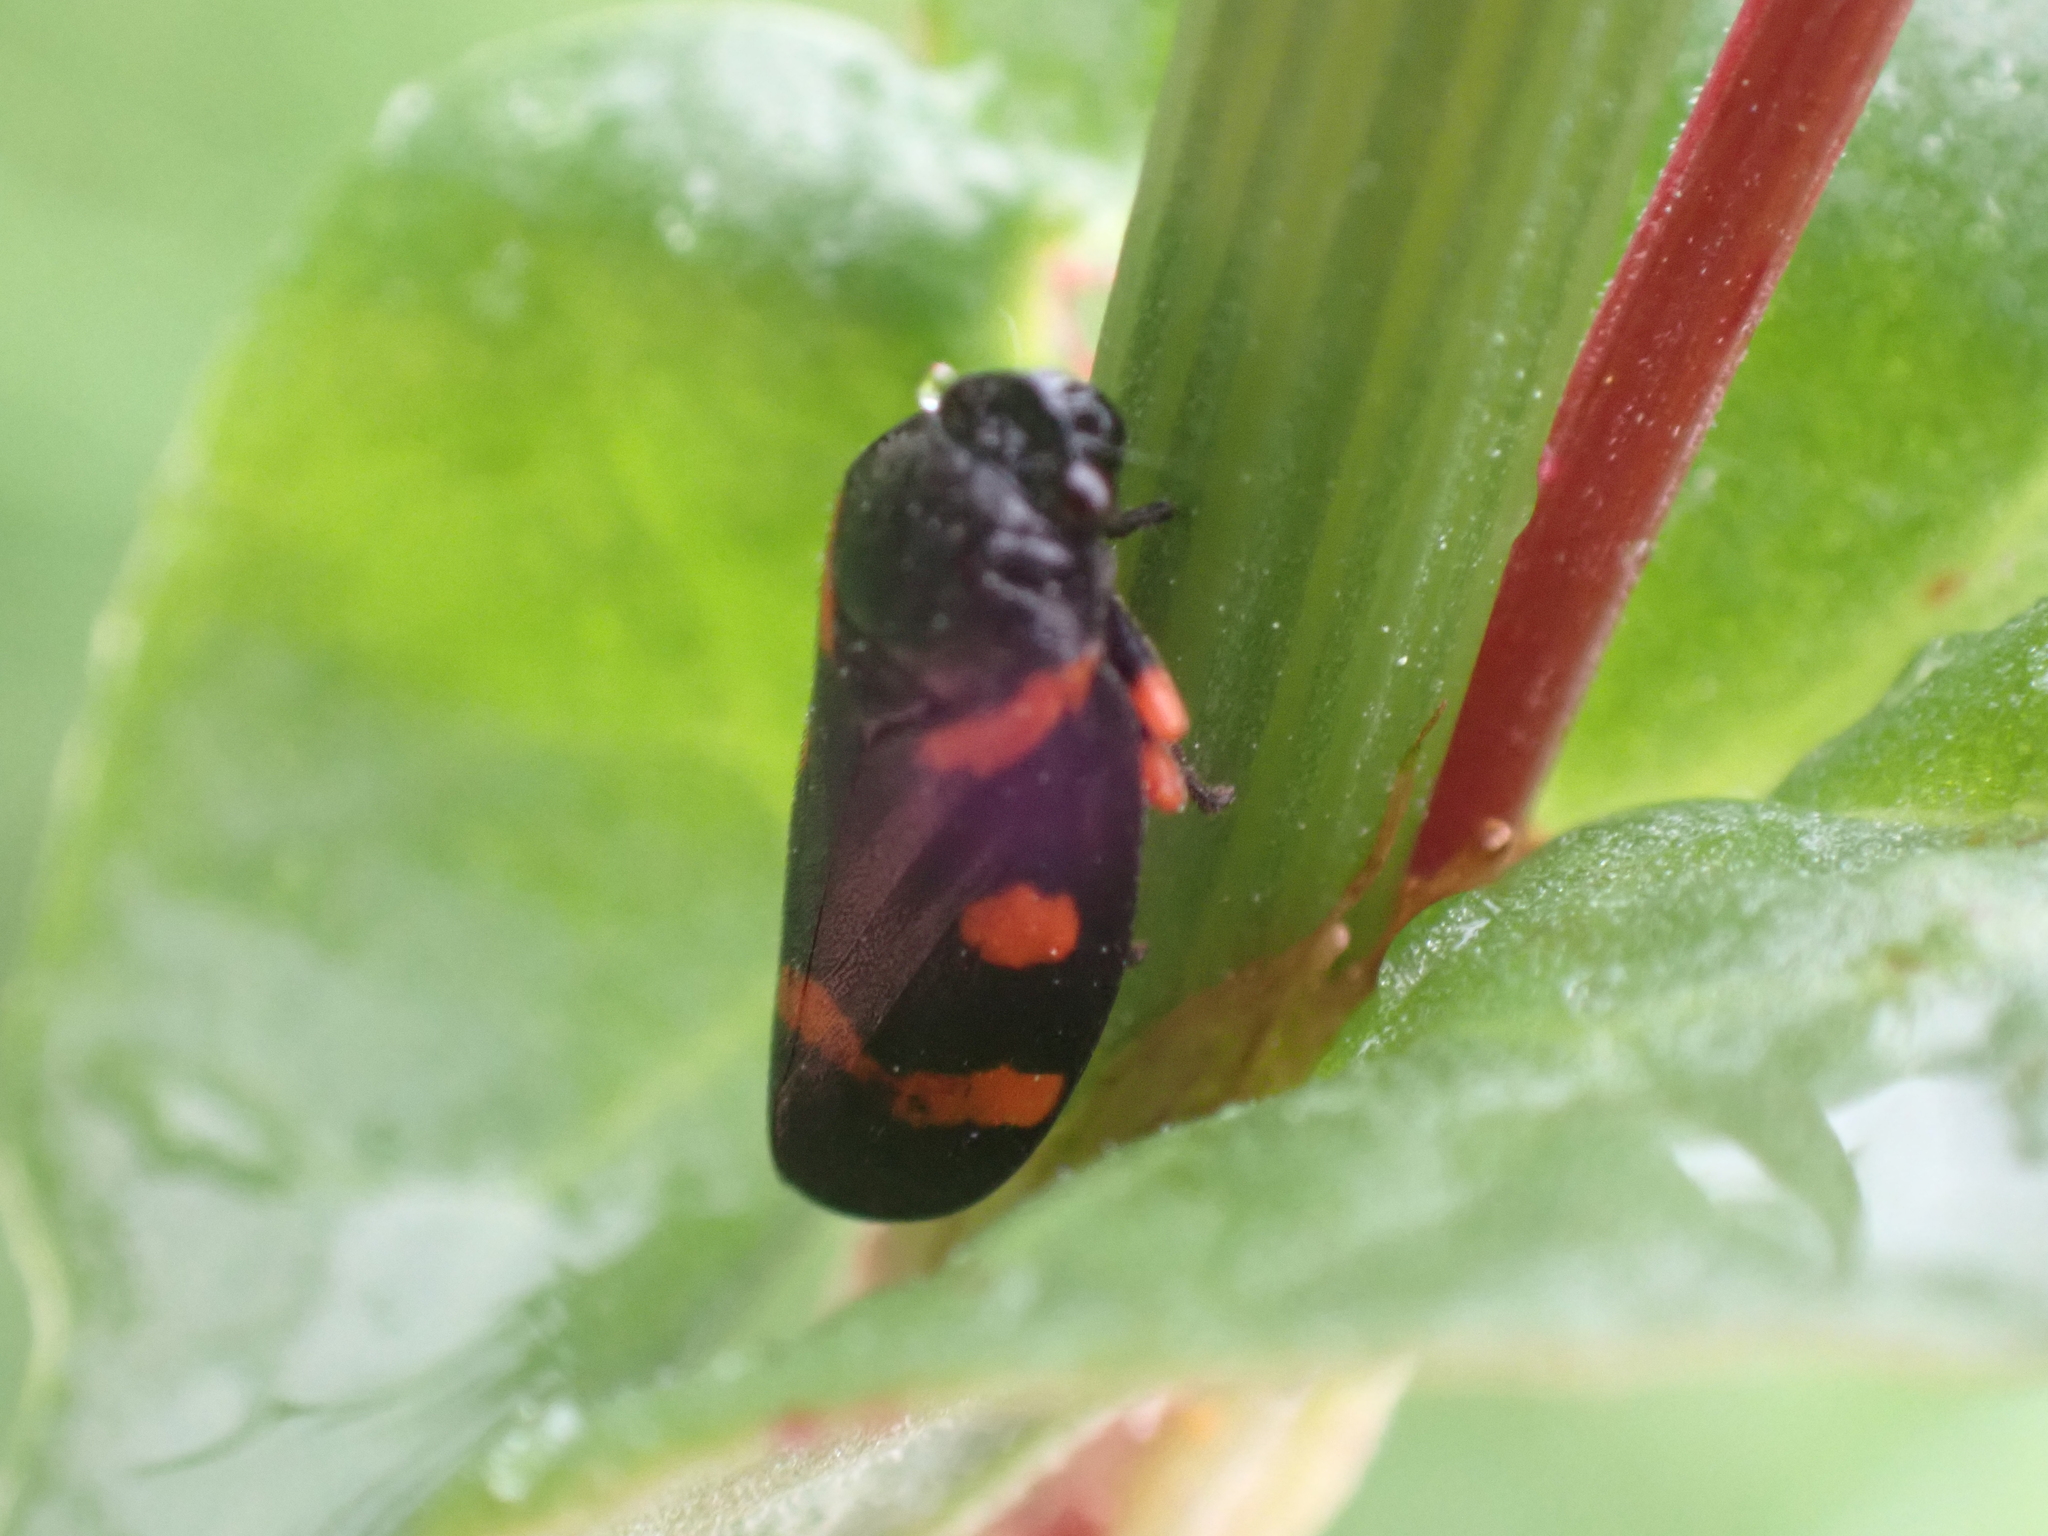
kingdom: Animalia
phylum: Arthropoda
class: Insecta
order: Hemiptera
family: Cercopidae
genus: Cercopis
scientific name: Cercopis intermedia
